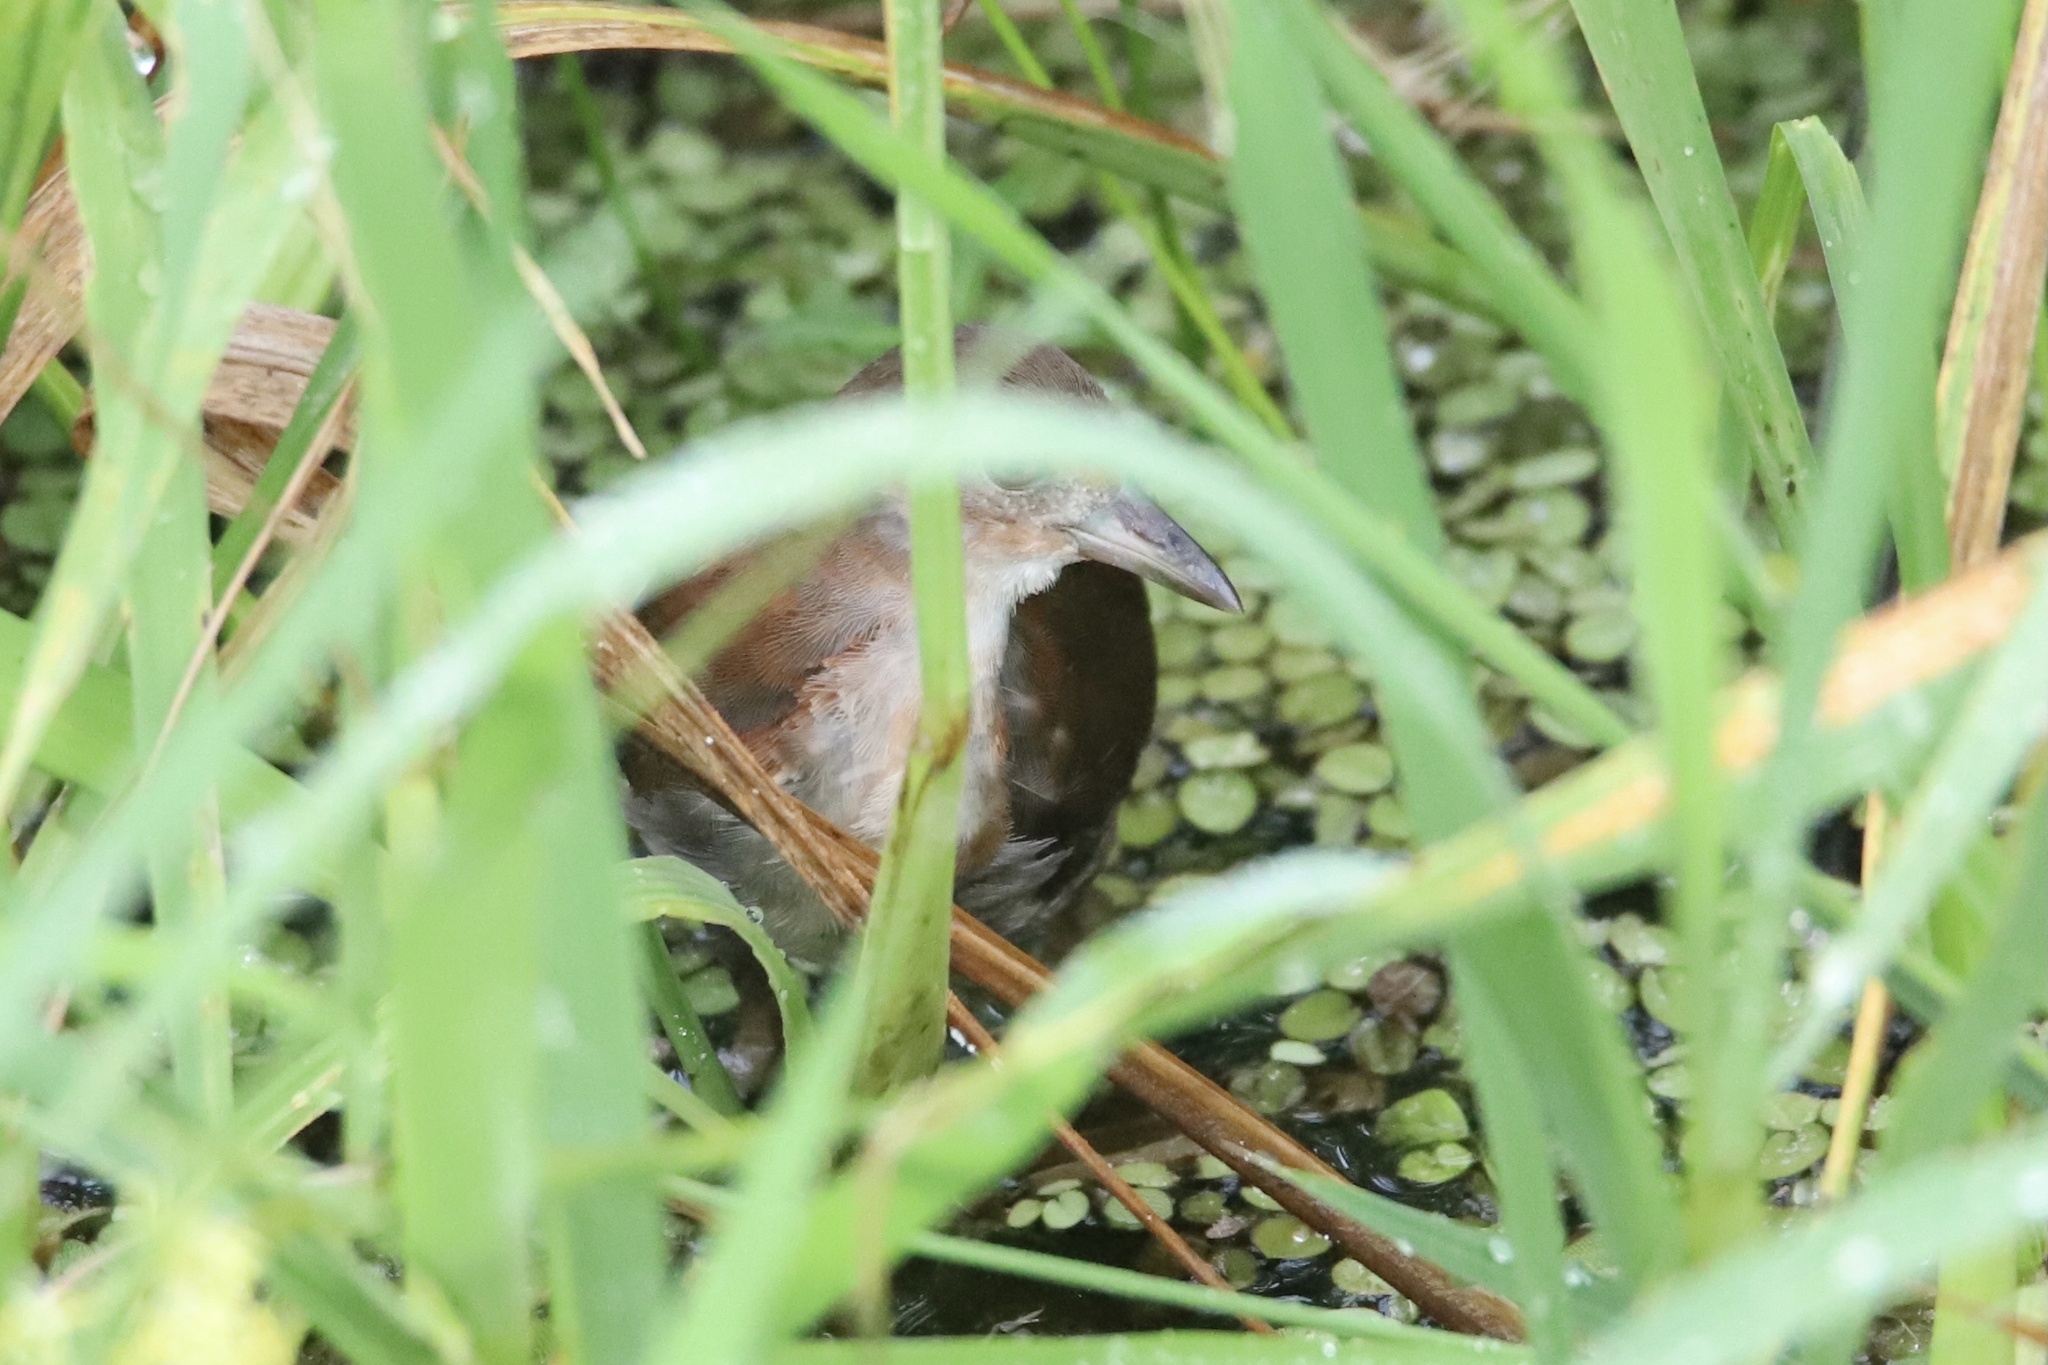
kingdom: Animalia
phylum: Chordata
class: Aves
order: Gruiformes
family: Rallidae
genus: Laterallus
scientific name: Laterallus albigularis
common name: White-throated crake
